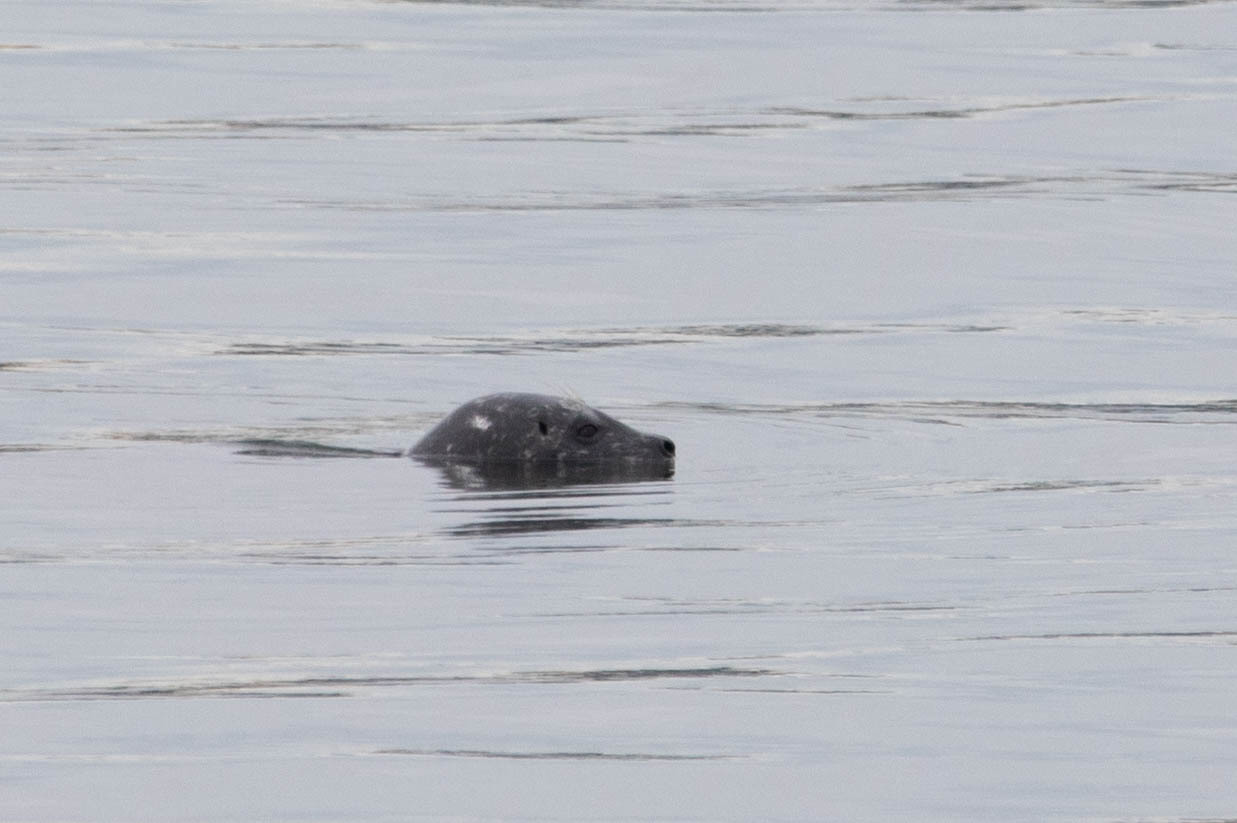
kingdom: Animalia
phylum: Chordata
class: Mammalia
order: Carnivora
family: Phocidae
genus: Phoca
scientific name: Phoca vitulina
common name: Harbor seal
